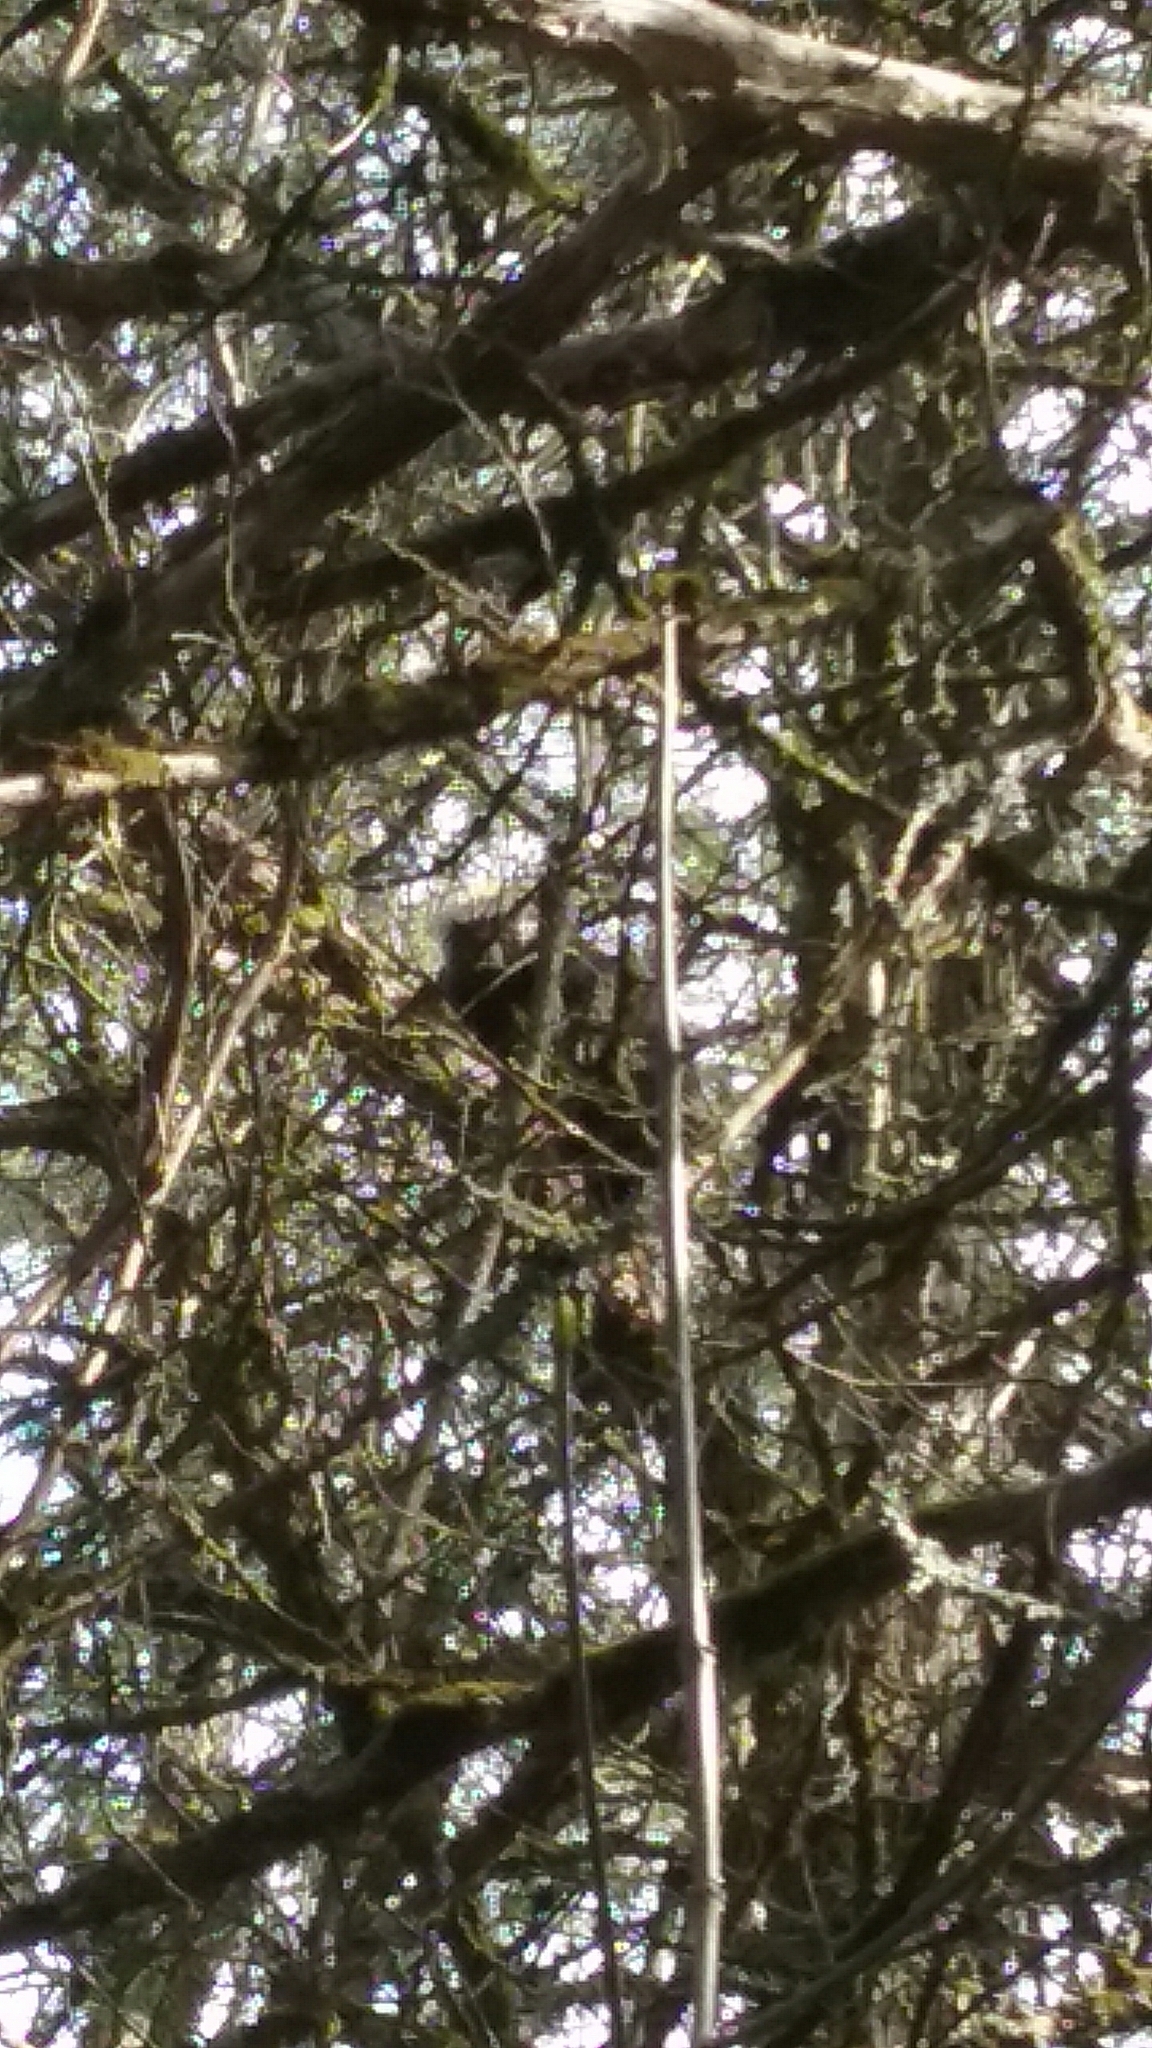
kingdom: Animalia
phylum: Chordata
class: Mammalia
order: Rodentia
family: Erethizontidae
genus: Erethizon
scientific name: Erethizon dorsatus
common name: North american porcupine
